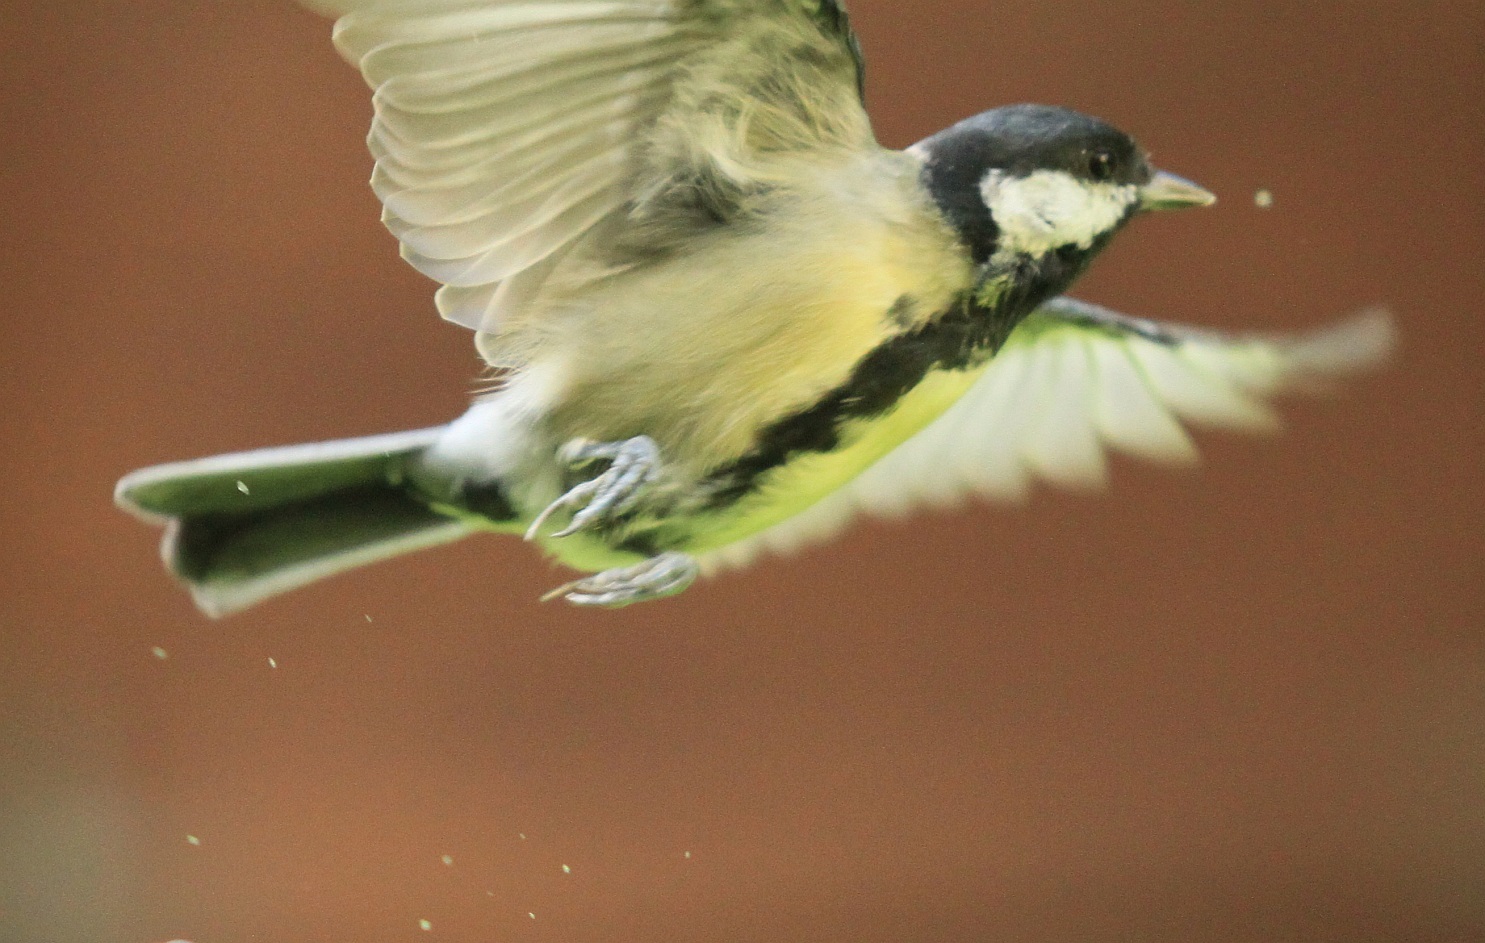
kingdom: Animalia
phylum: Chordata
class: Aves
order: Passeriformes
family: Paridae
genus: Parus
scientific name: Parus major
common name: Great tit
